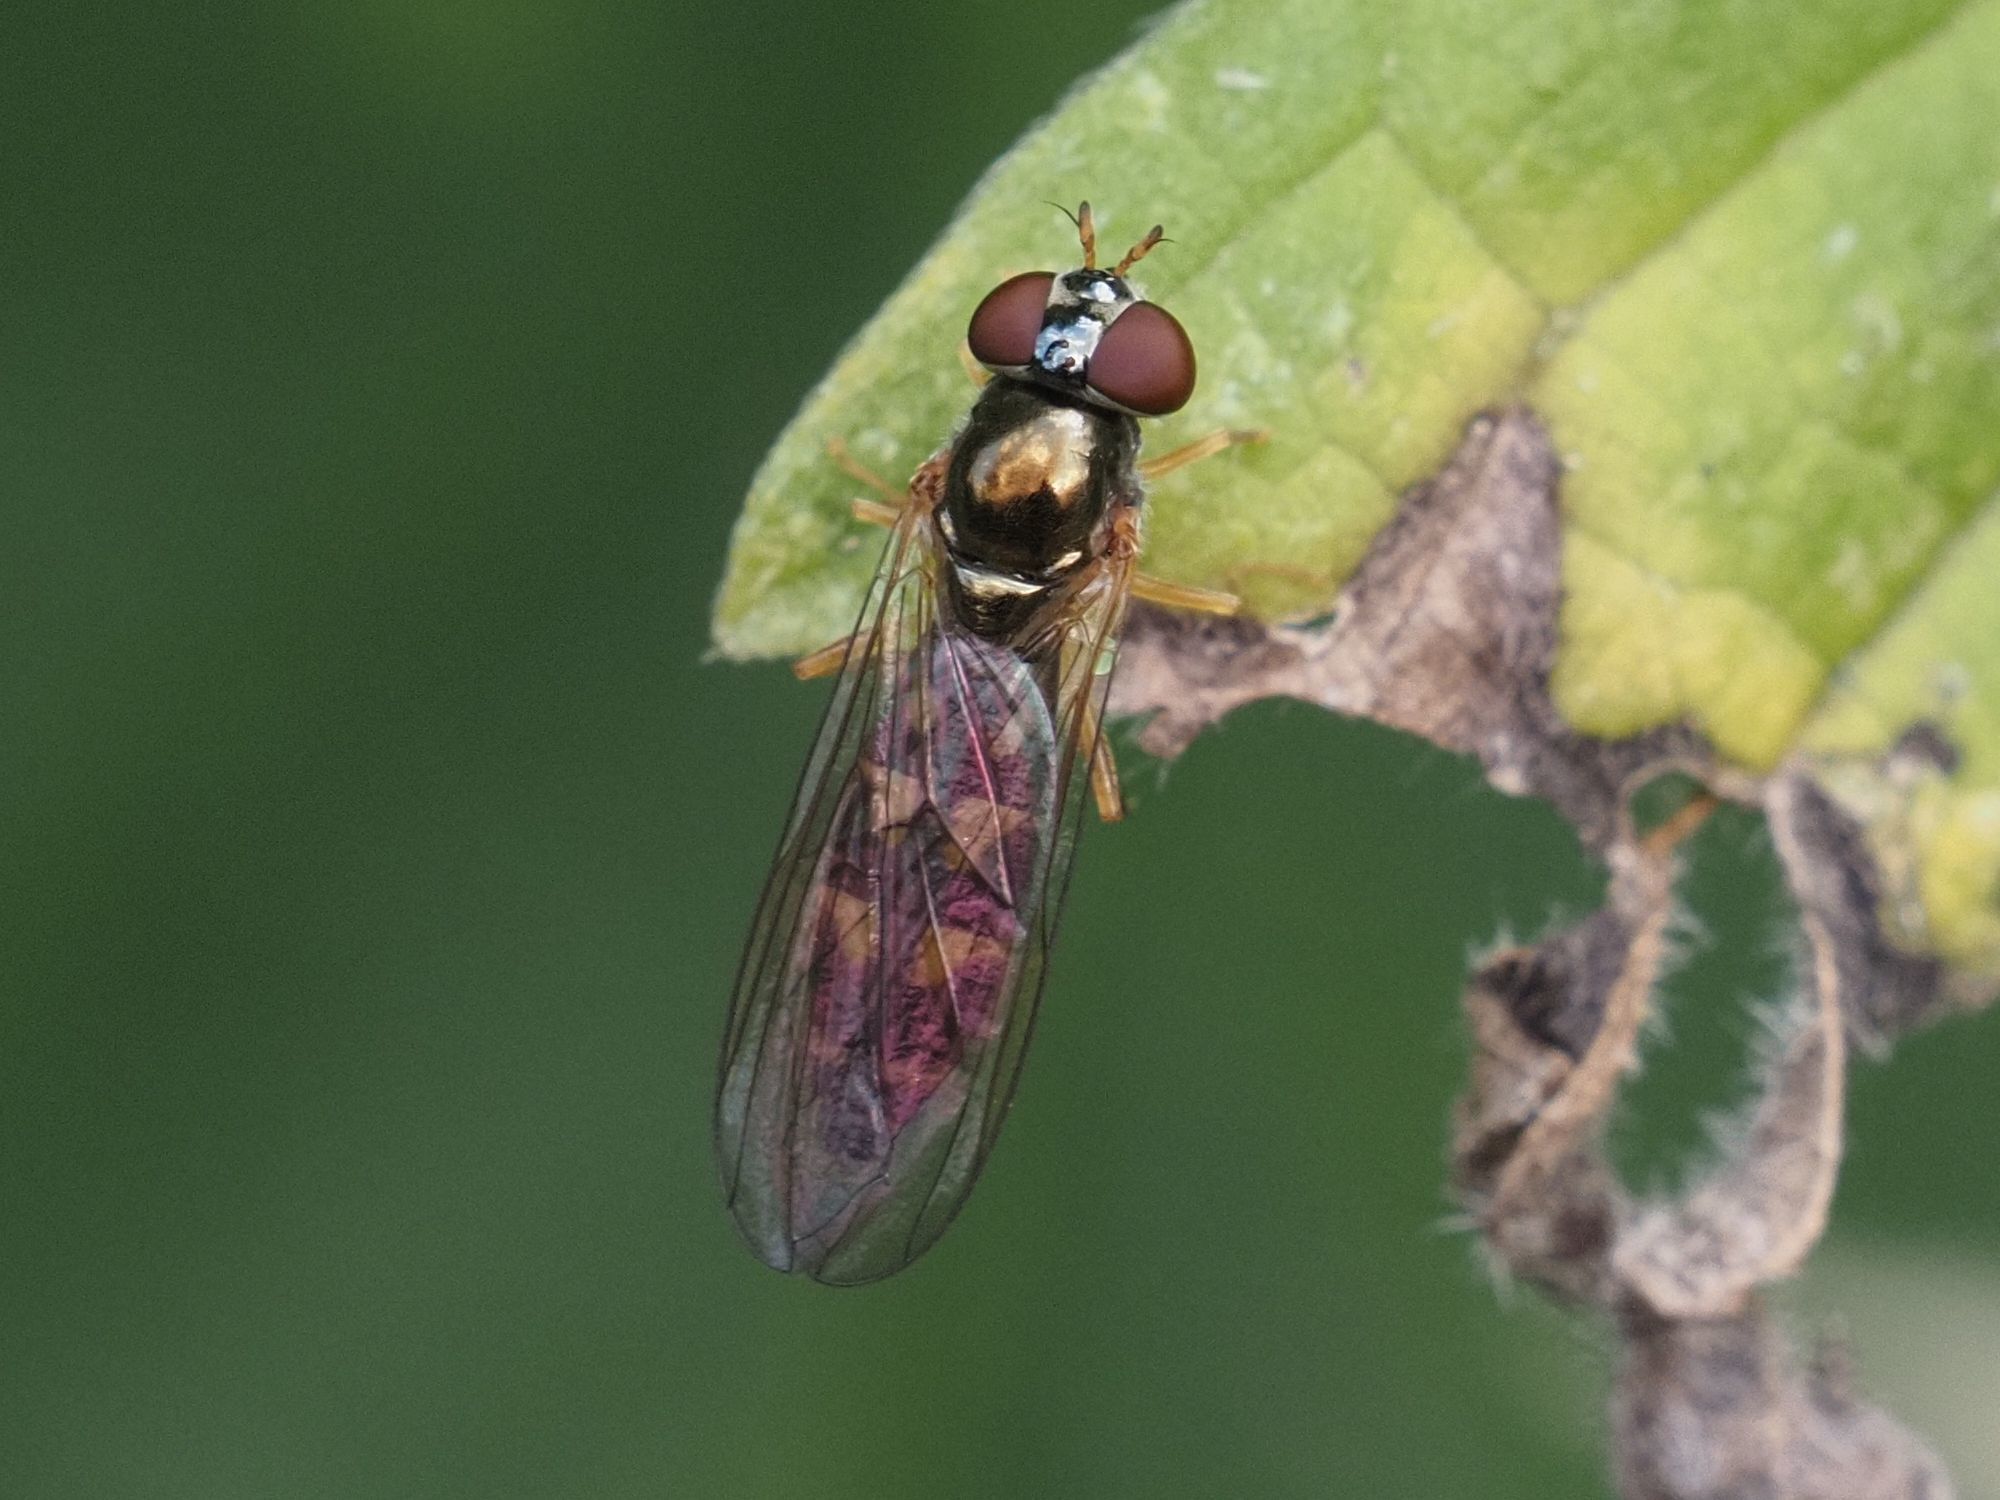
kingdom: Animalia
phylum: Arthropoda
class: Insecta
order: Diptera
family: Syrphidae
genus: Melanostoma
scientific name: Melanostoma scalare
